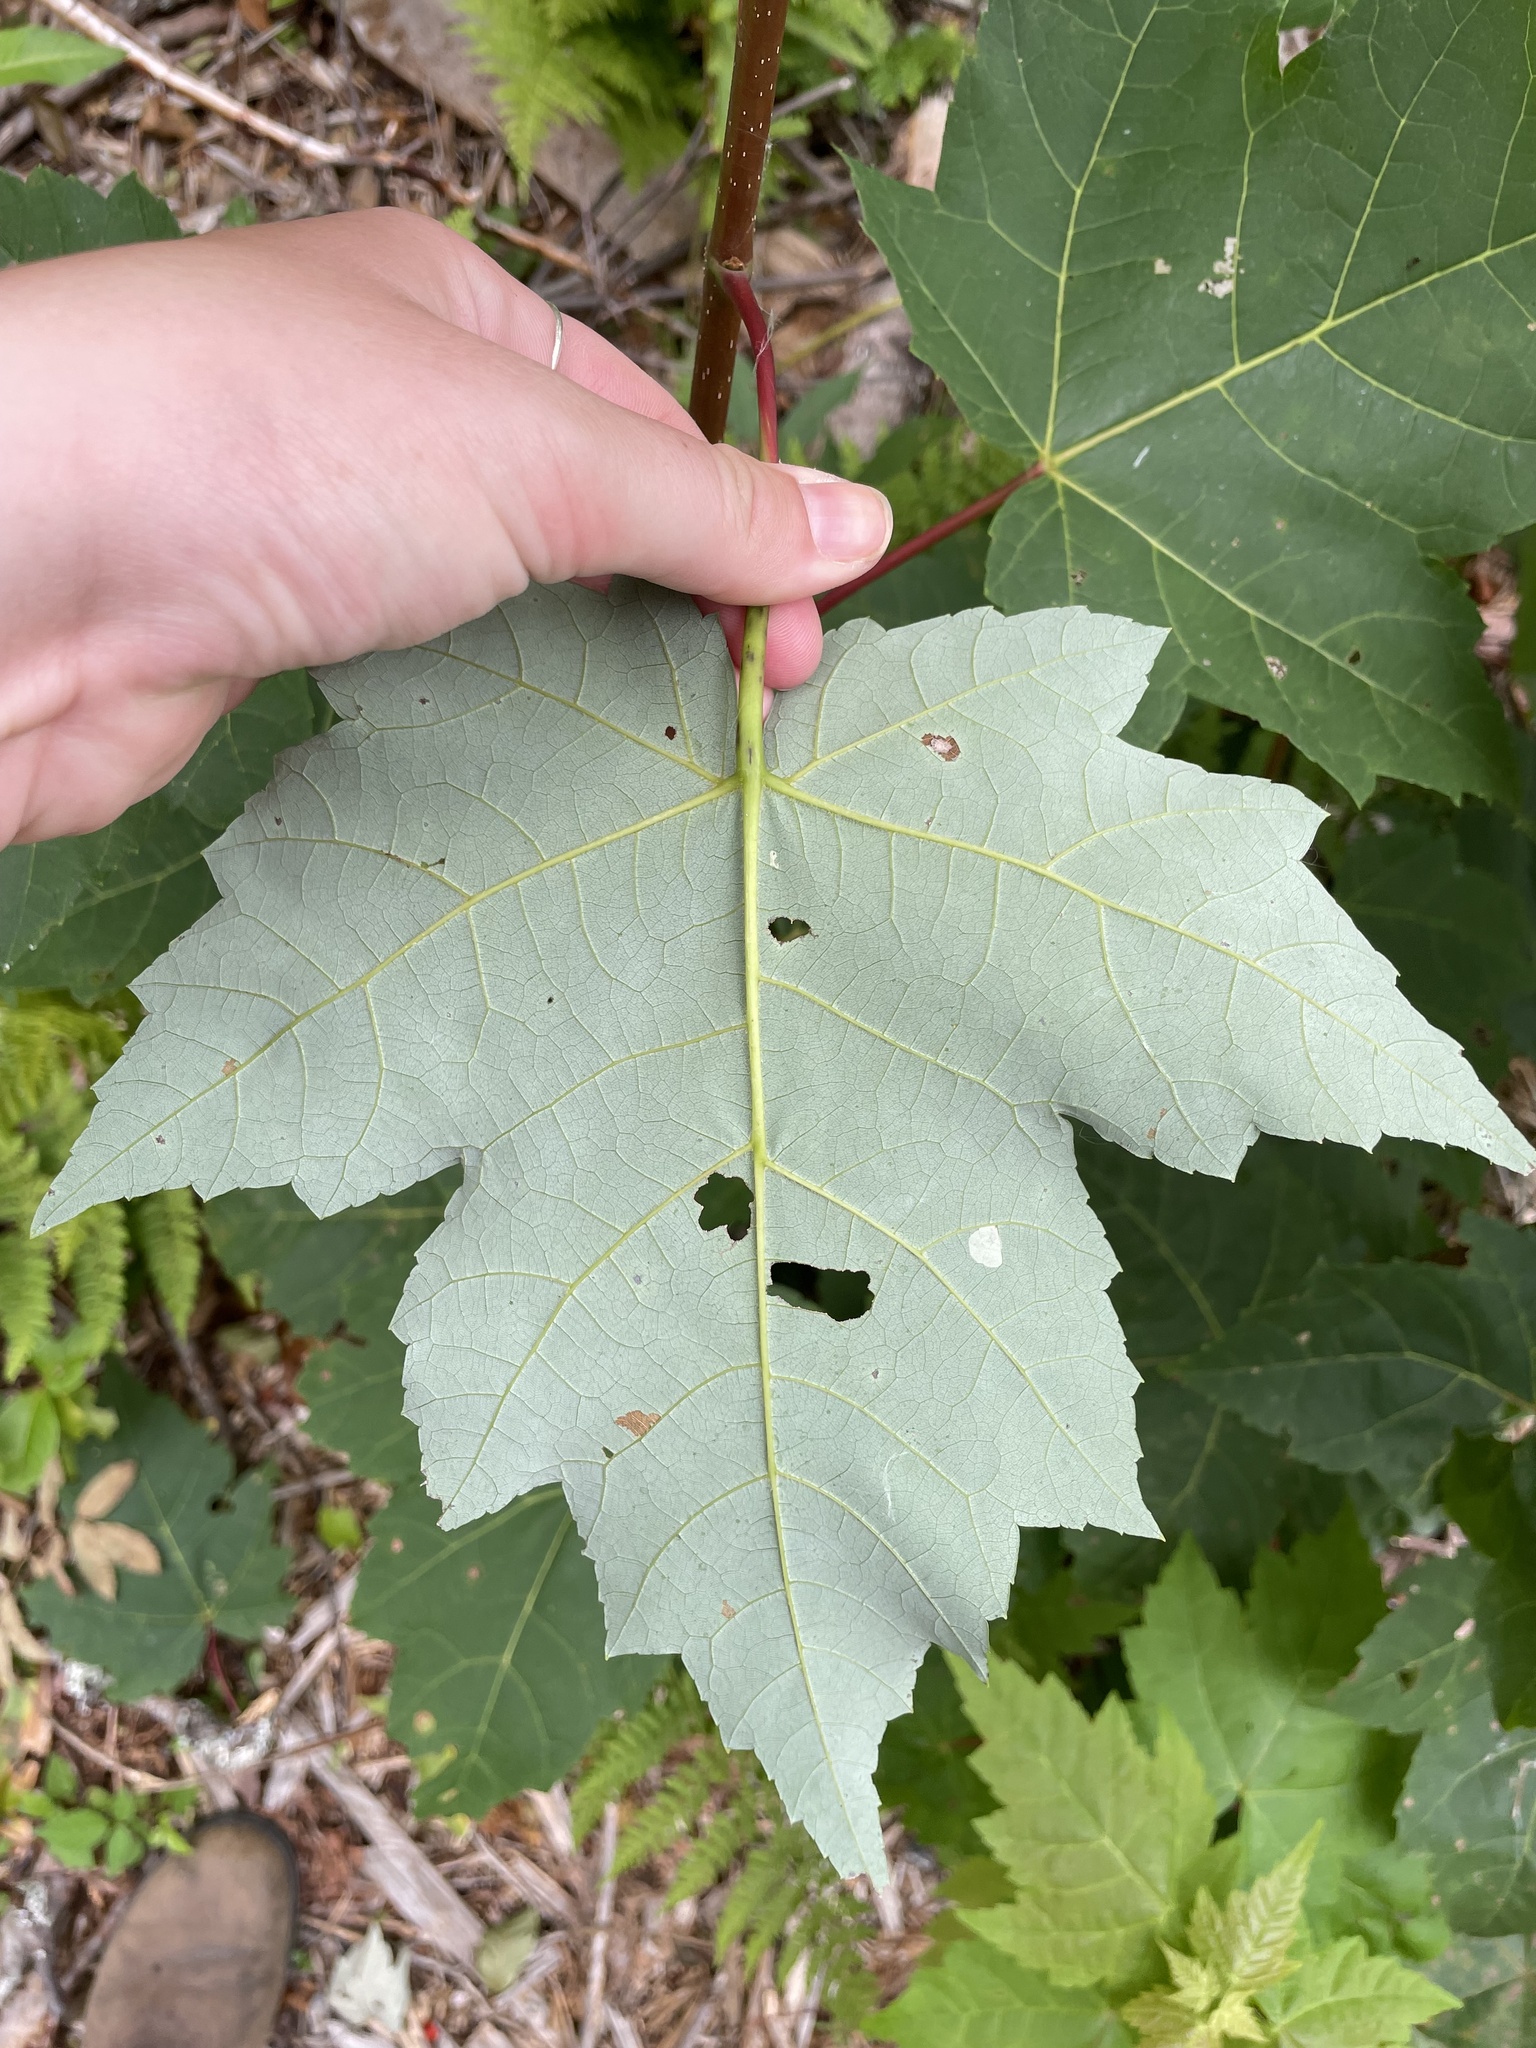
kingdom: Plantae
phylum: Tracheophyta
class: Magnoliopsida
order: Sapindales
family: Sapindaceae
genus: Acer
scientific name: Acer rubrum
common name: Red maple
